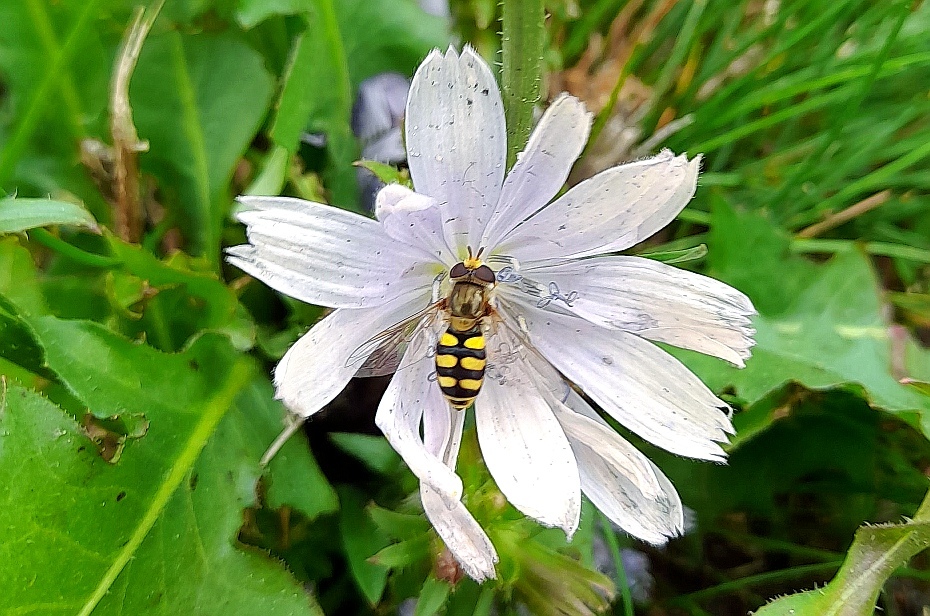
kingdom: Animalia
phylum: Arthropoda
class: Insecta
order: Diptera
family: Syrphidae
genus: Eupeodes
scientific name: Eupeodes corollae
